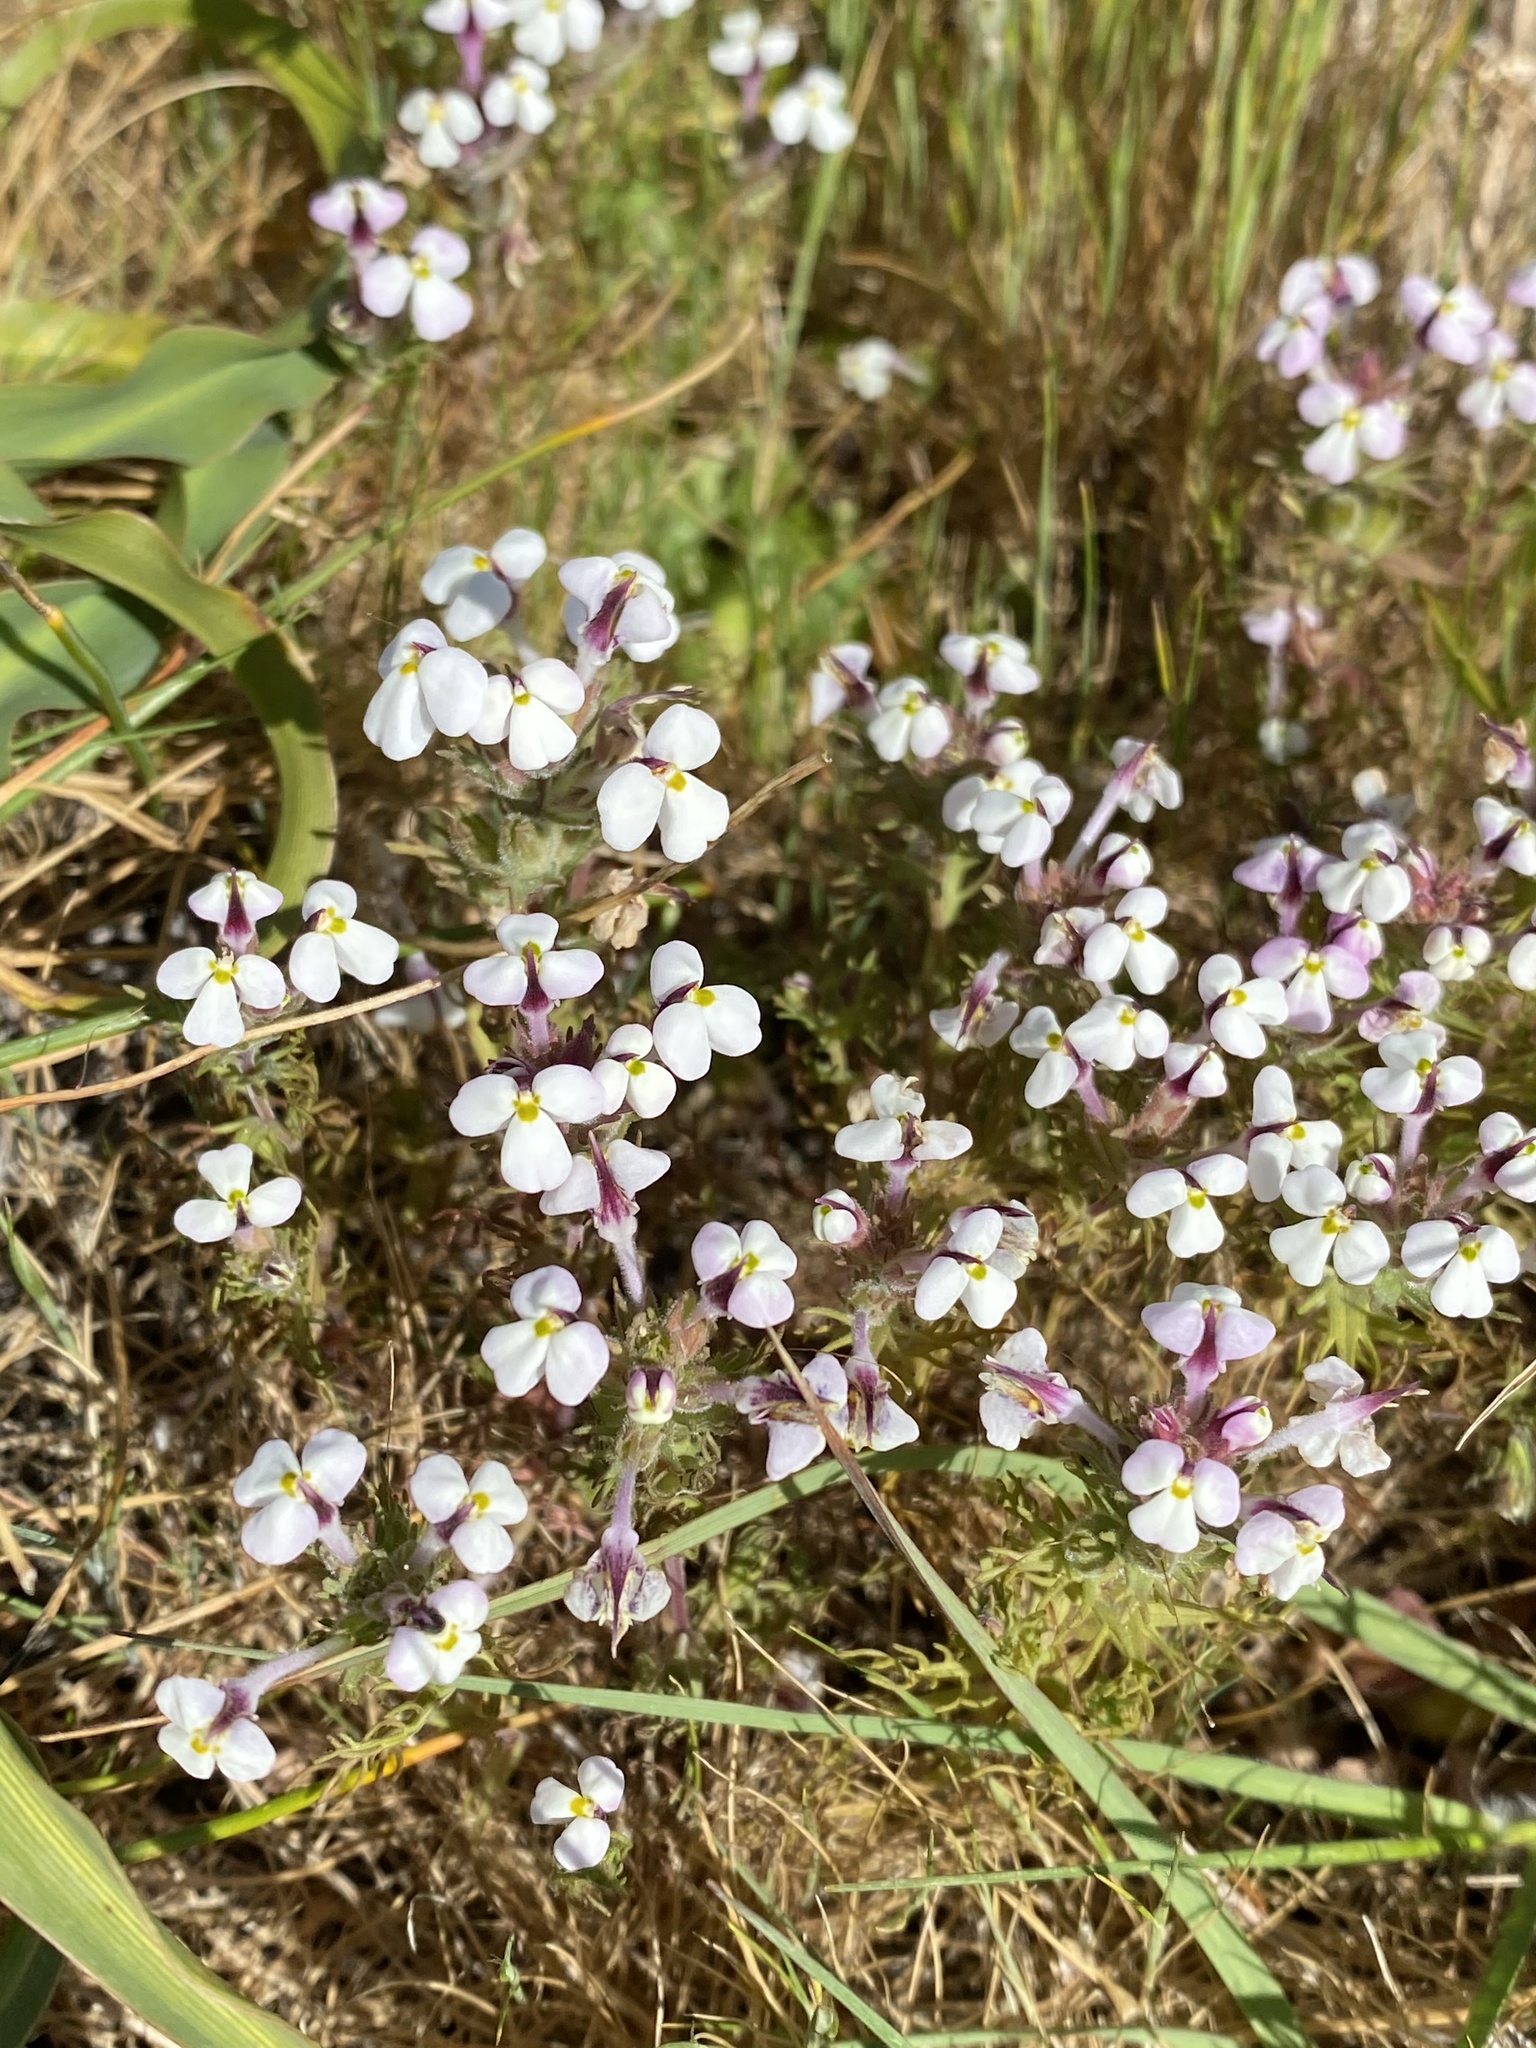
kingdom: Plantae
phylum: Tracheophyta
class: Magnoliopsida
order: Lamiales
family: Orobanchaceae
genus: Triphysaria
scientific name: Triphysaria eriantha
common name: Johnny-tuck
